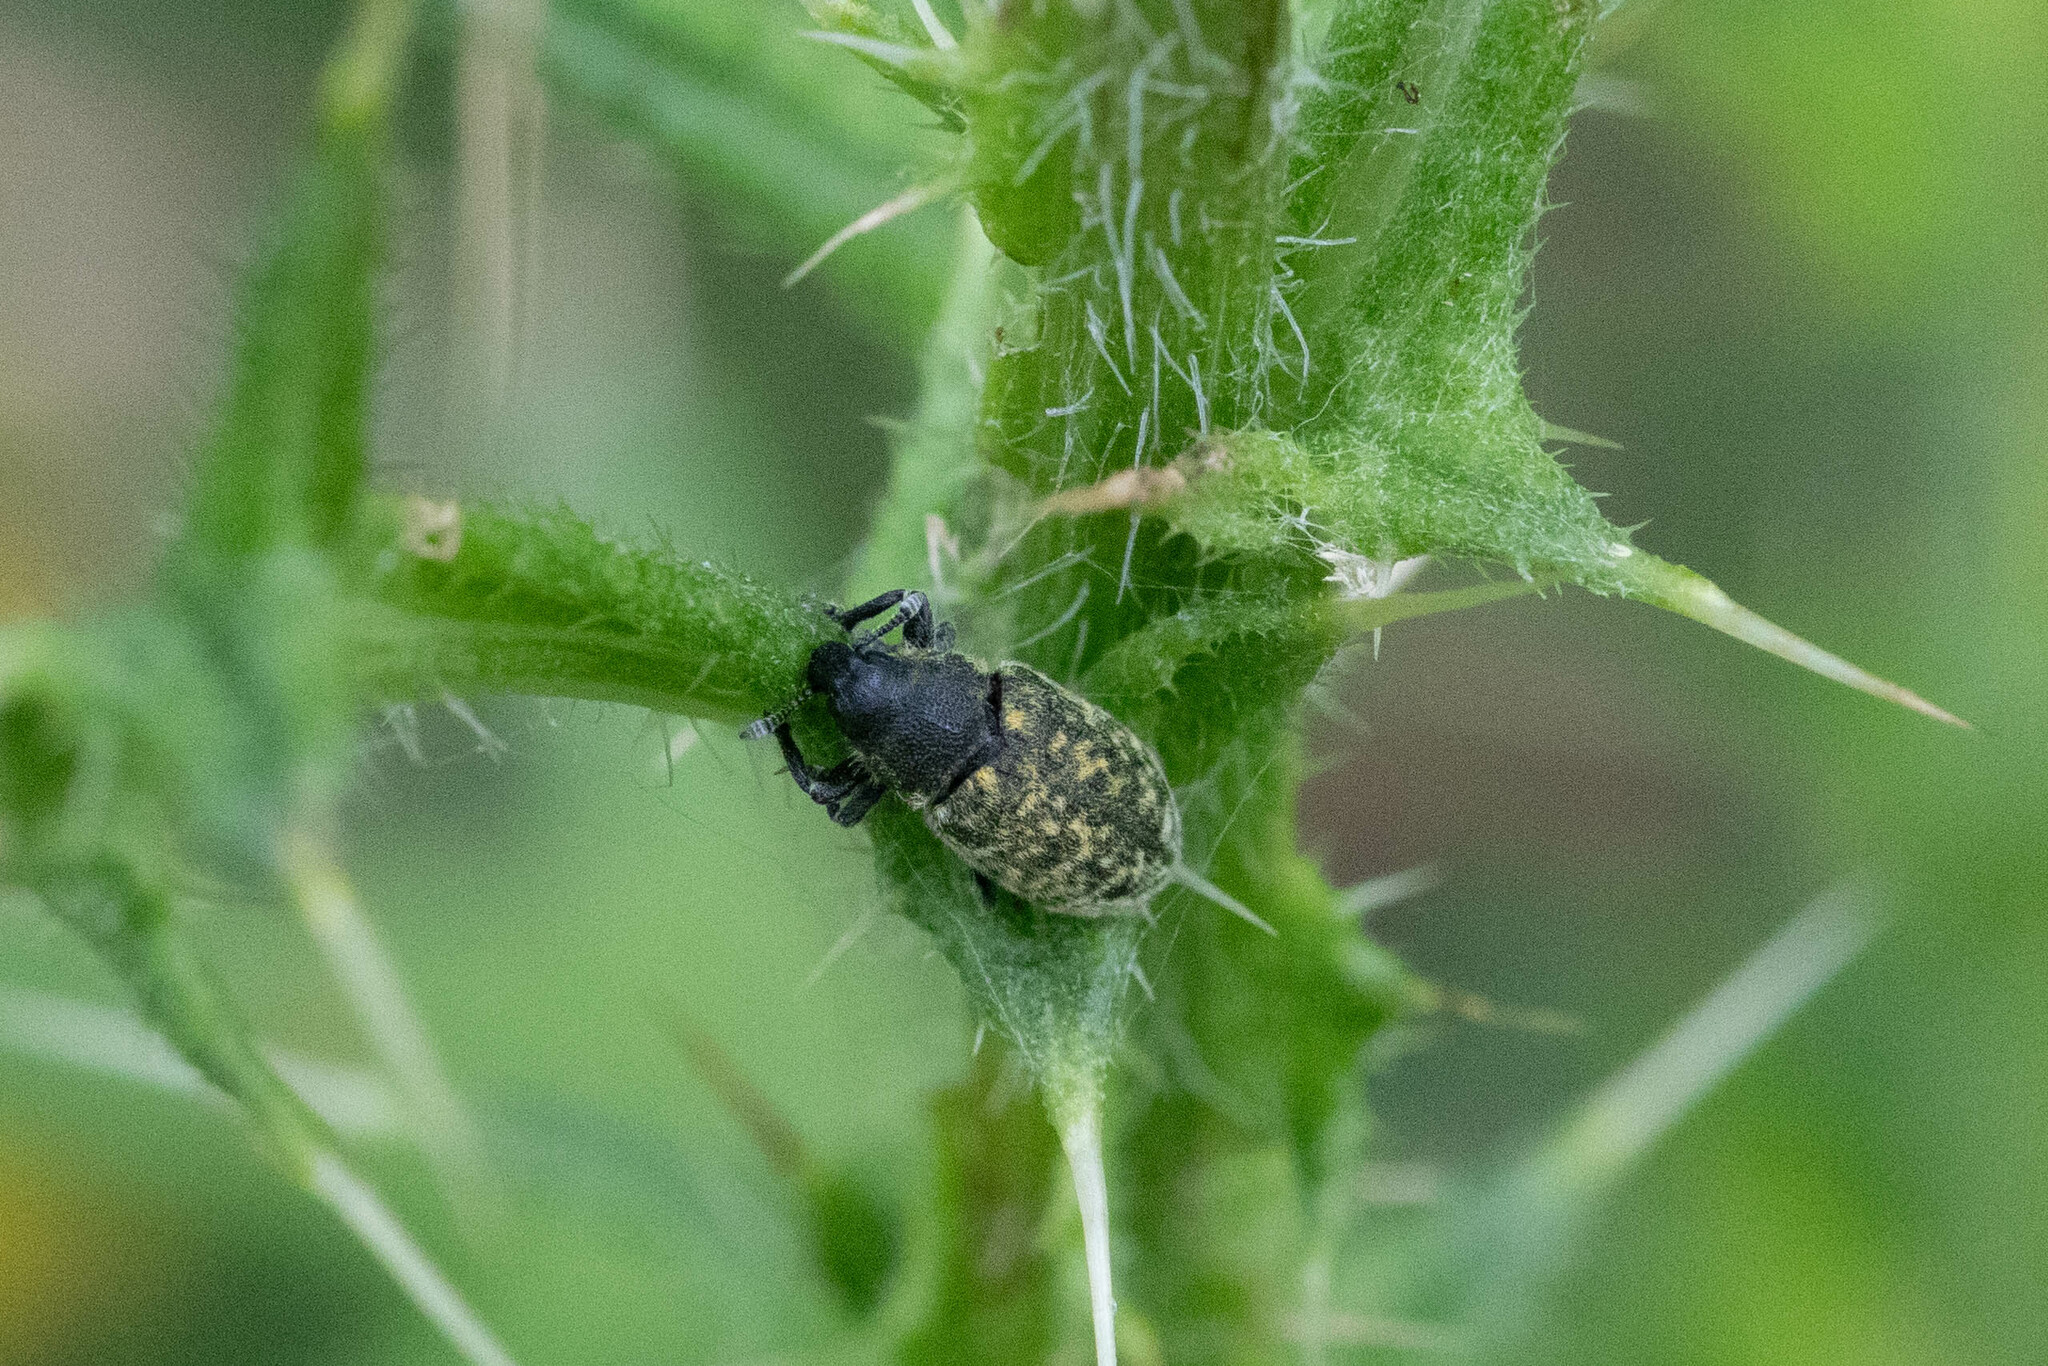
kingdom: Animalia
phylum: Arthropoda
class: Insecta
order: Coleoptera
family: Curculionidae
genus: Rhinocyllus
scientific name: Rhinocyllus conicus
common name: Weevil
